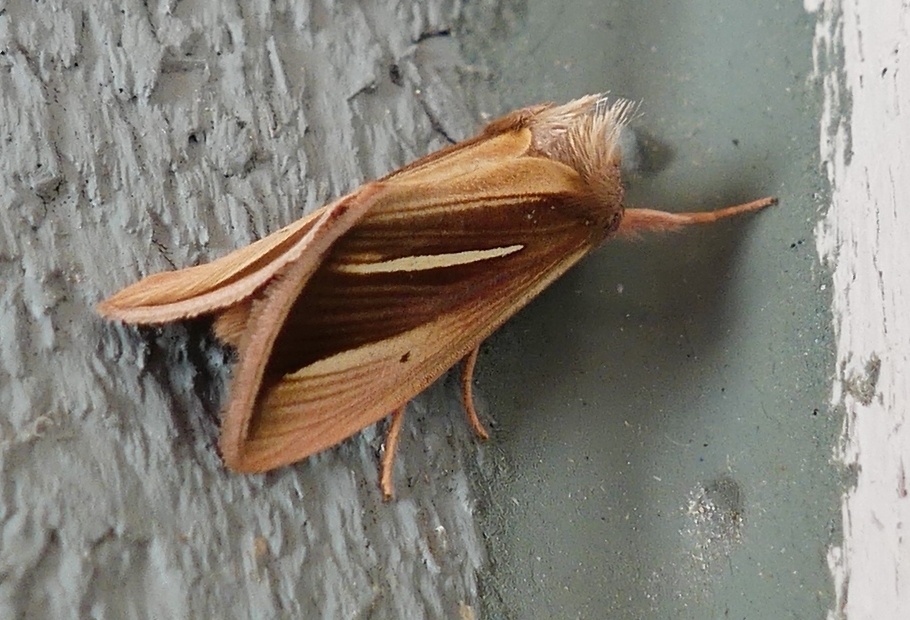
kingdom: Animalia
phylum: Arthropoda
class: Insecta
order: Lepidoptera
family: Noctuidae
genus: Plusia
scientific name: Plusia venusta
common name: White-streaked looper moth
